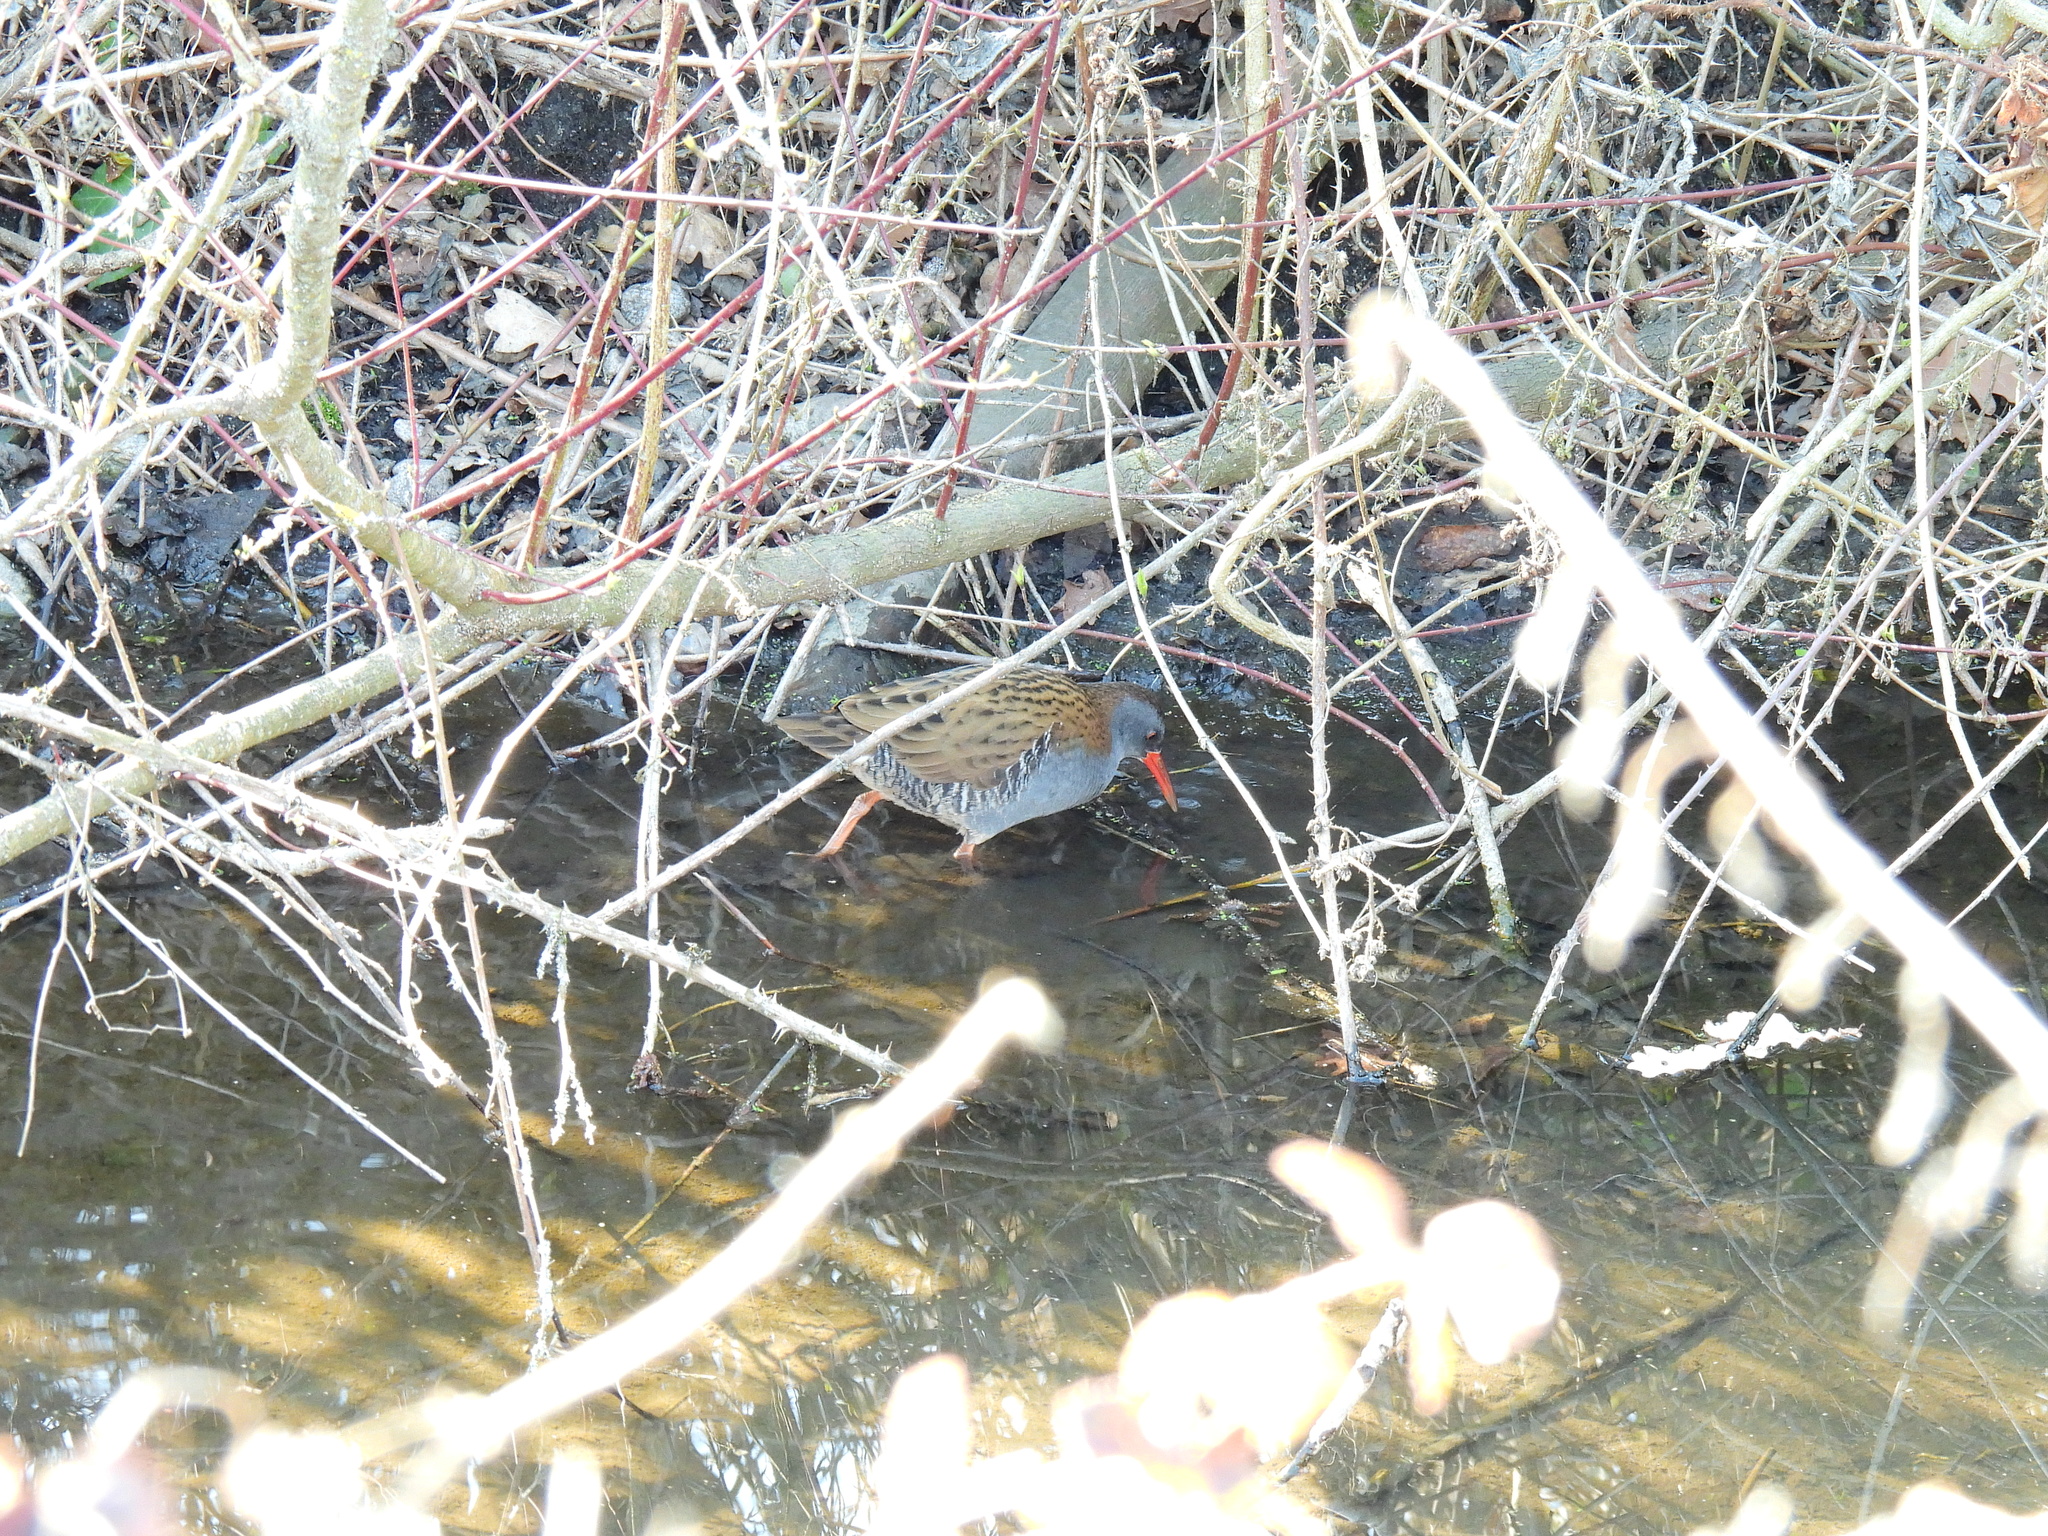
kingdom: Animalia
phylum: Chordata
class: Aves
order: Gruiformes
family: Rallidae
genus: Rallus
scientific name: Rallus aquaticus
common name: Water rail
